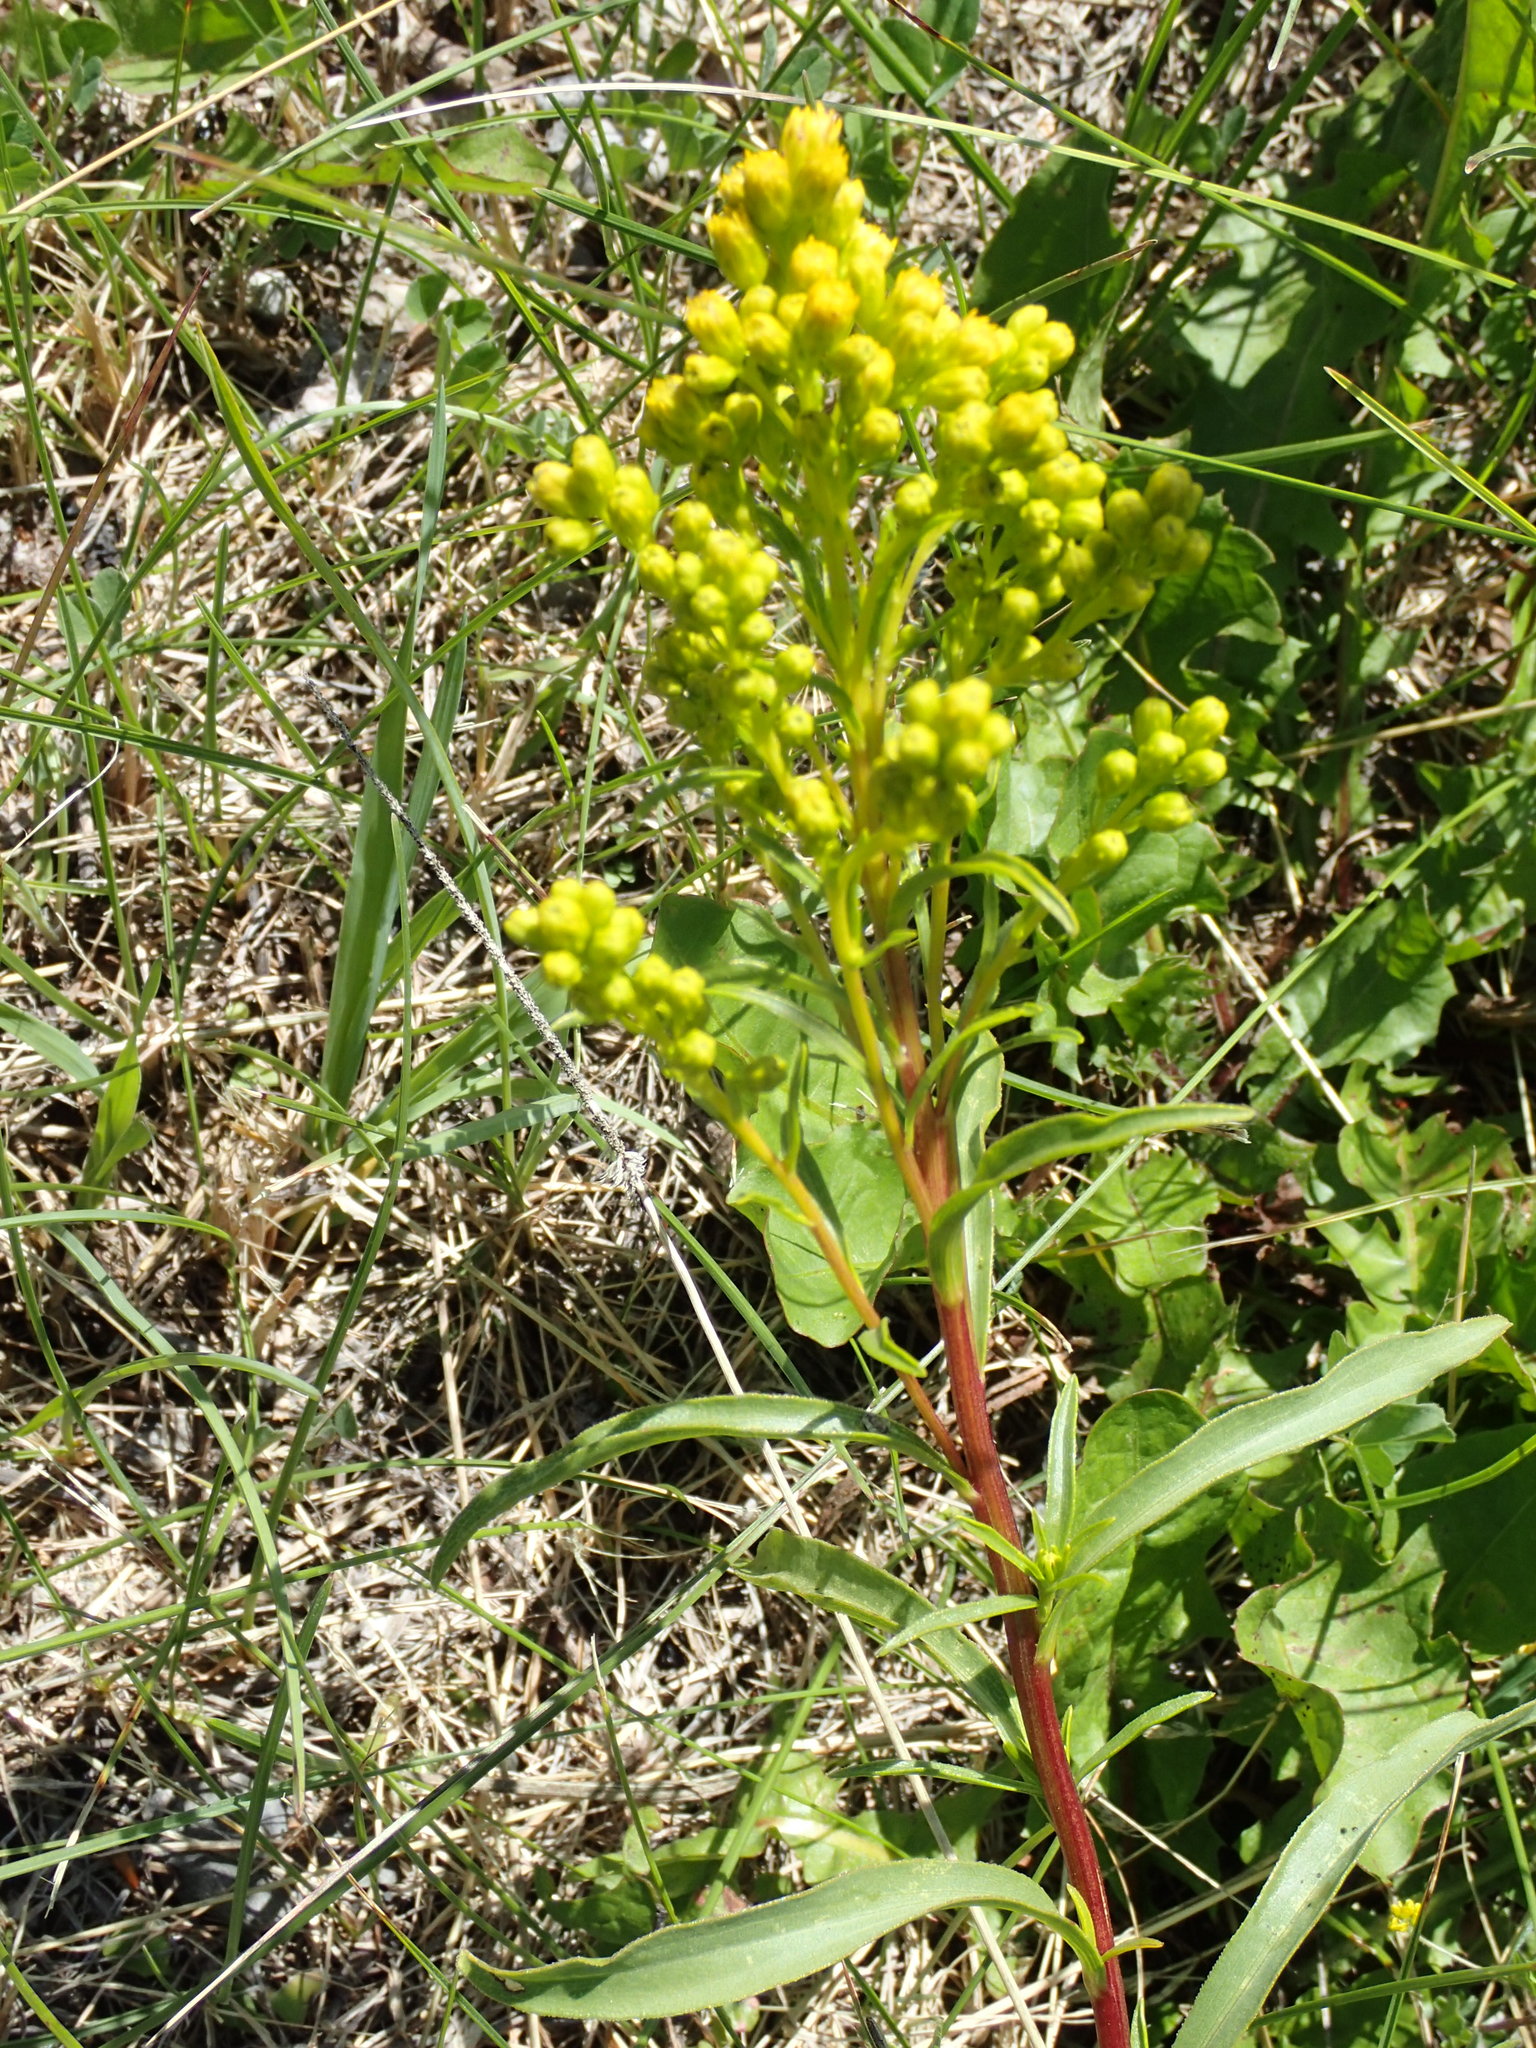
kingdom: Plantae
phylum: Tracheophyta
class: Magnoliopsida
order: Asterales
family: Asteraceae
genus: Solidago
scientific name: Solidago missouriensis
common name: Prairie goldenrod
